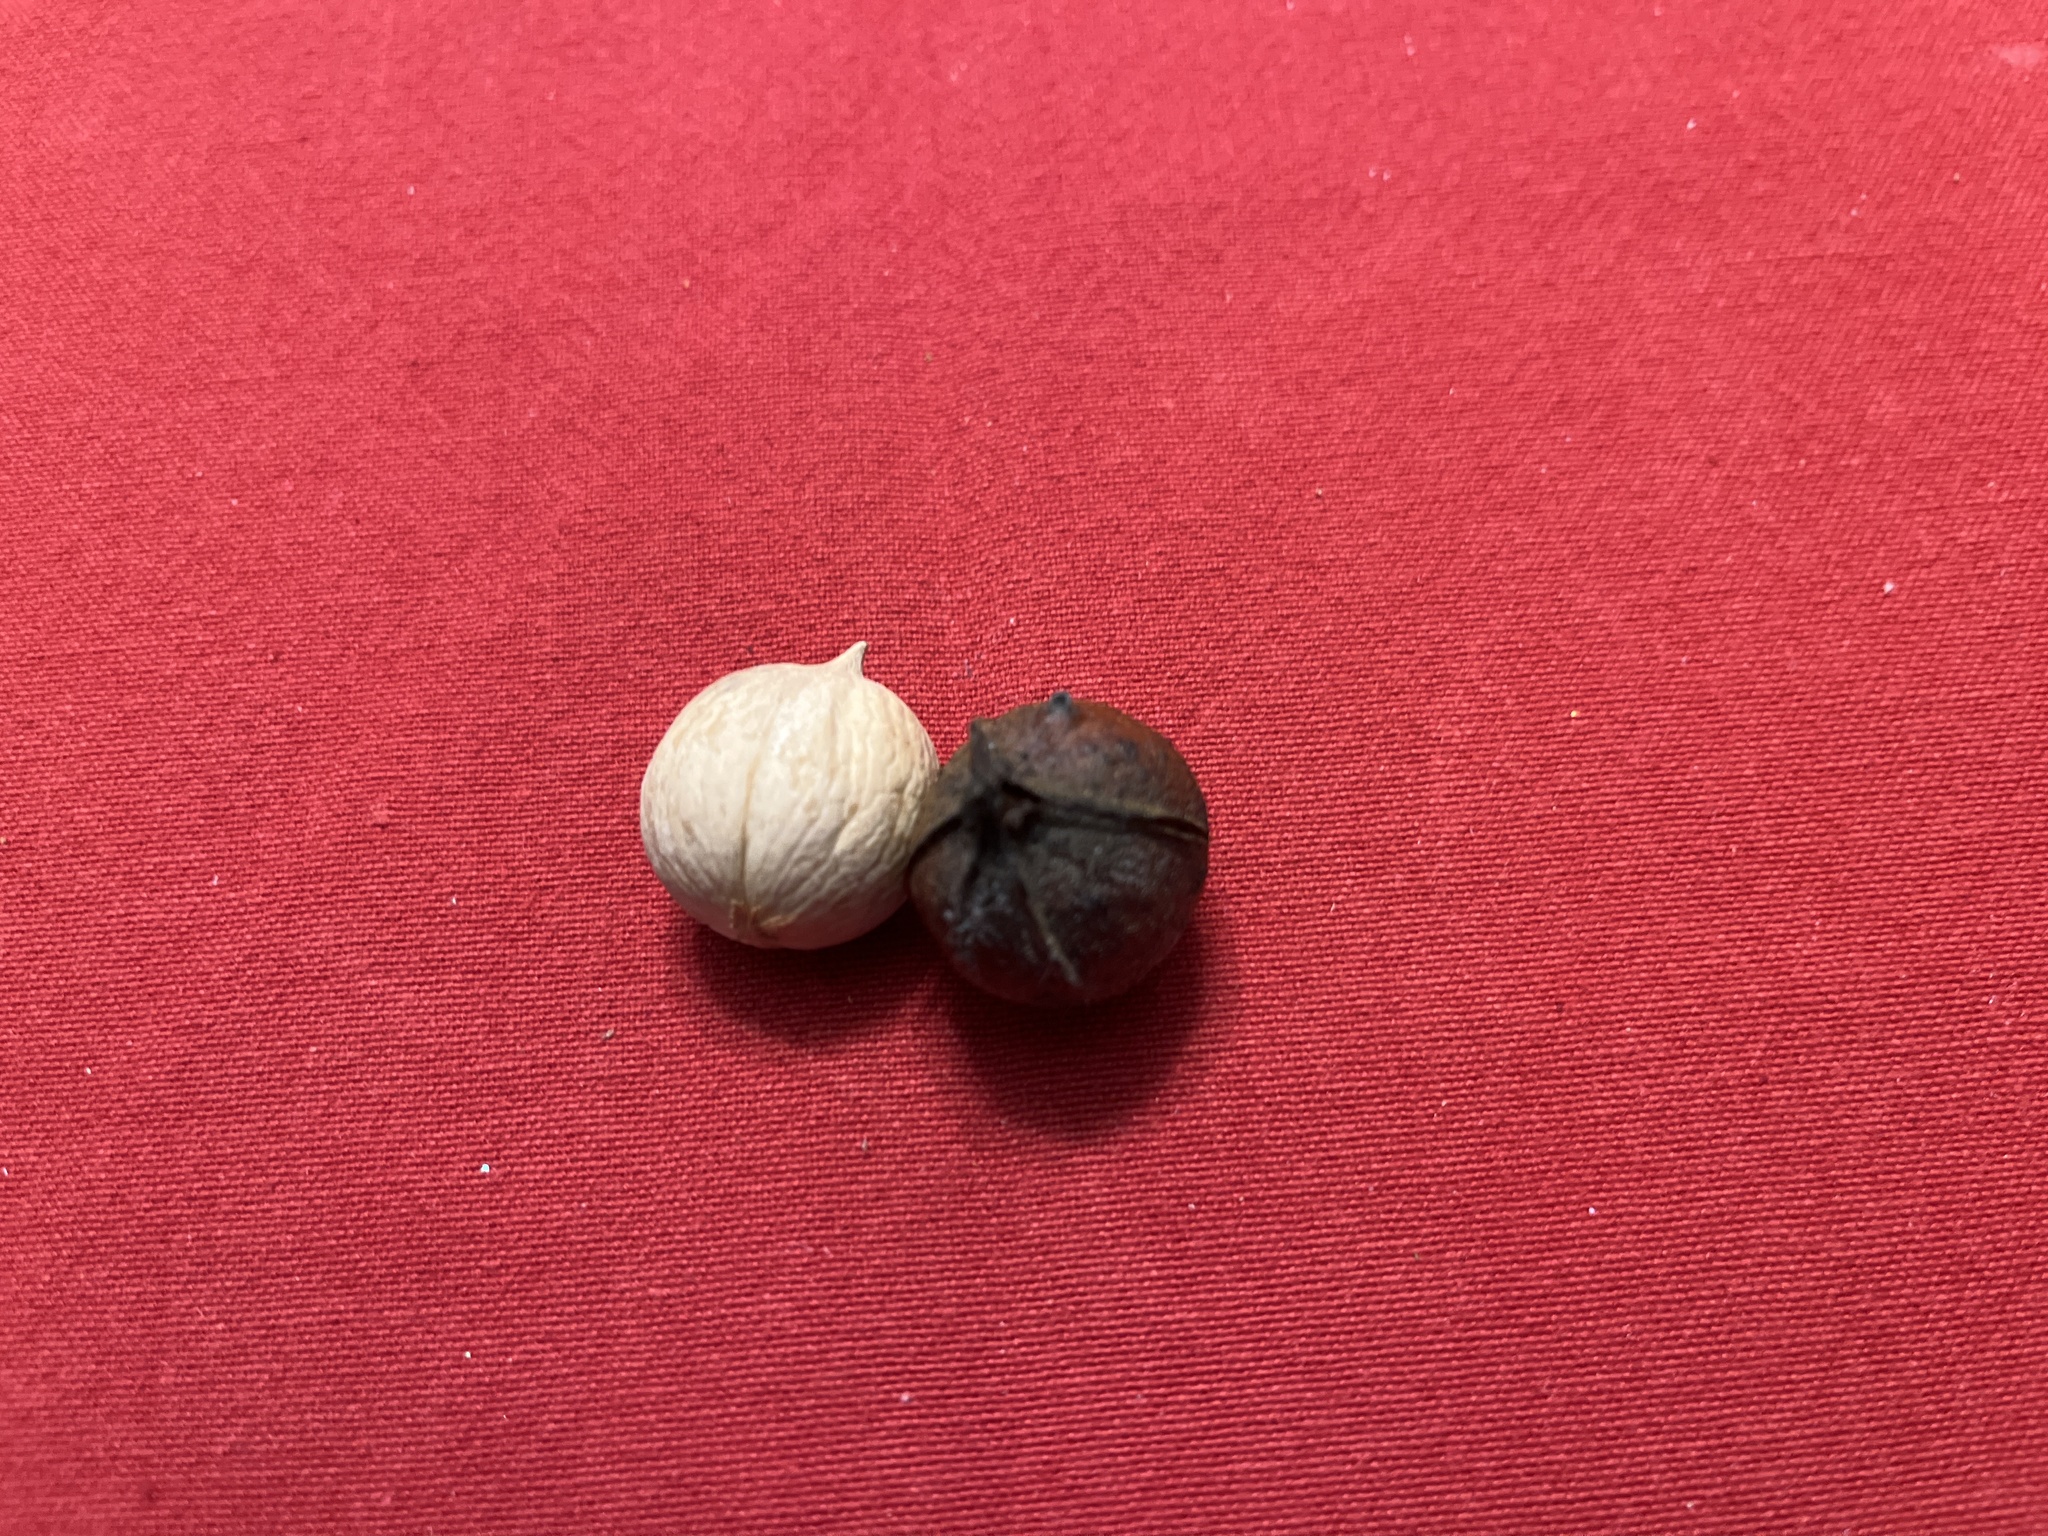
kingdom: Plantae
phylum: Tracheophyta
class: Magnoliopsida
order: Fagales
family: Juglandaceae
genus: Carya
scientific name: Carya cordiformis
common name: Bitternut hickory
